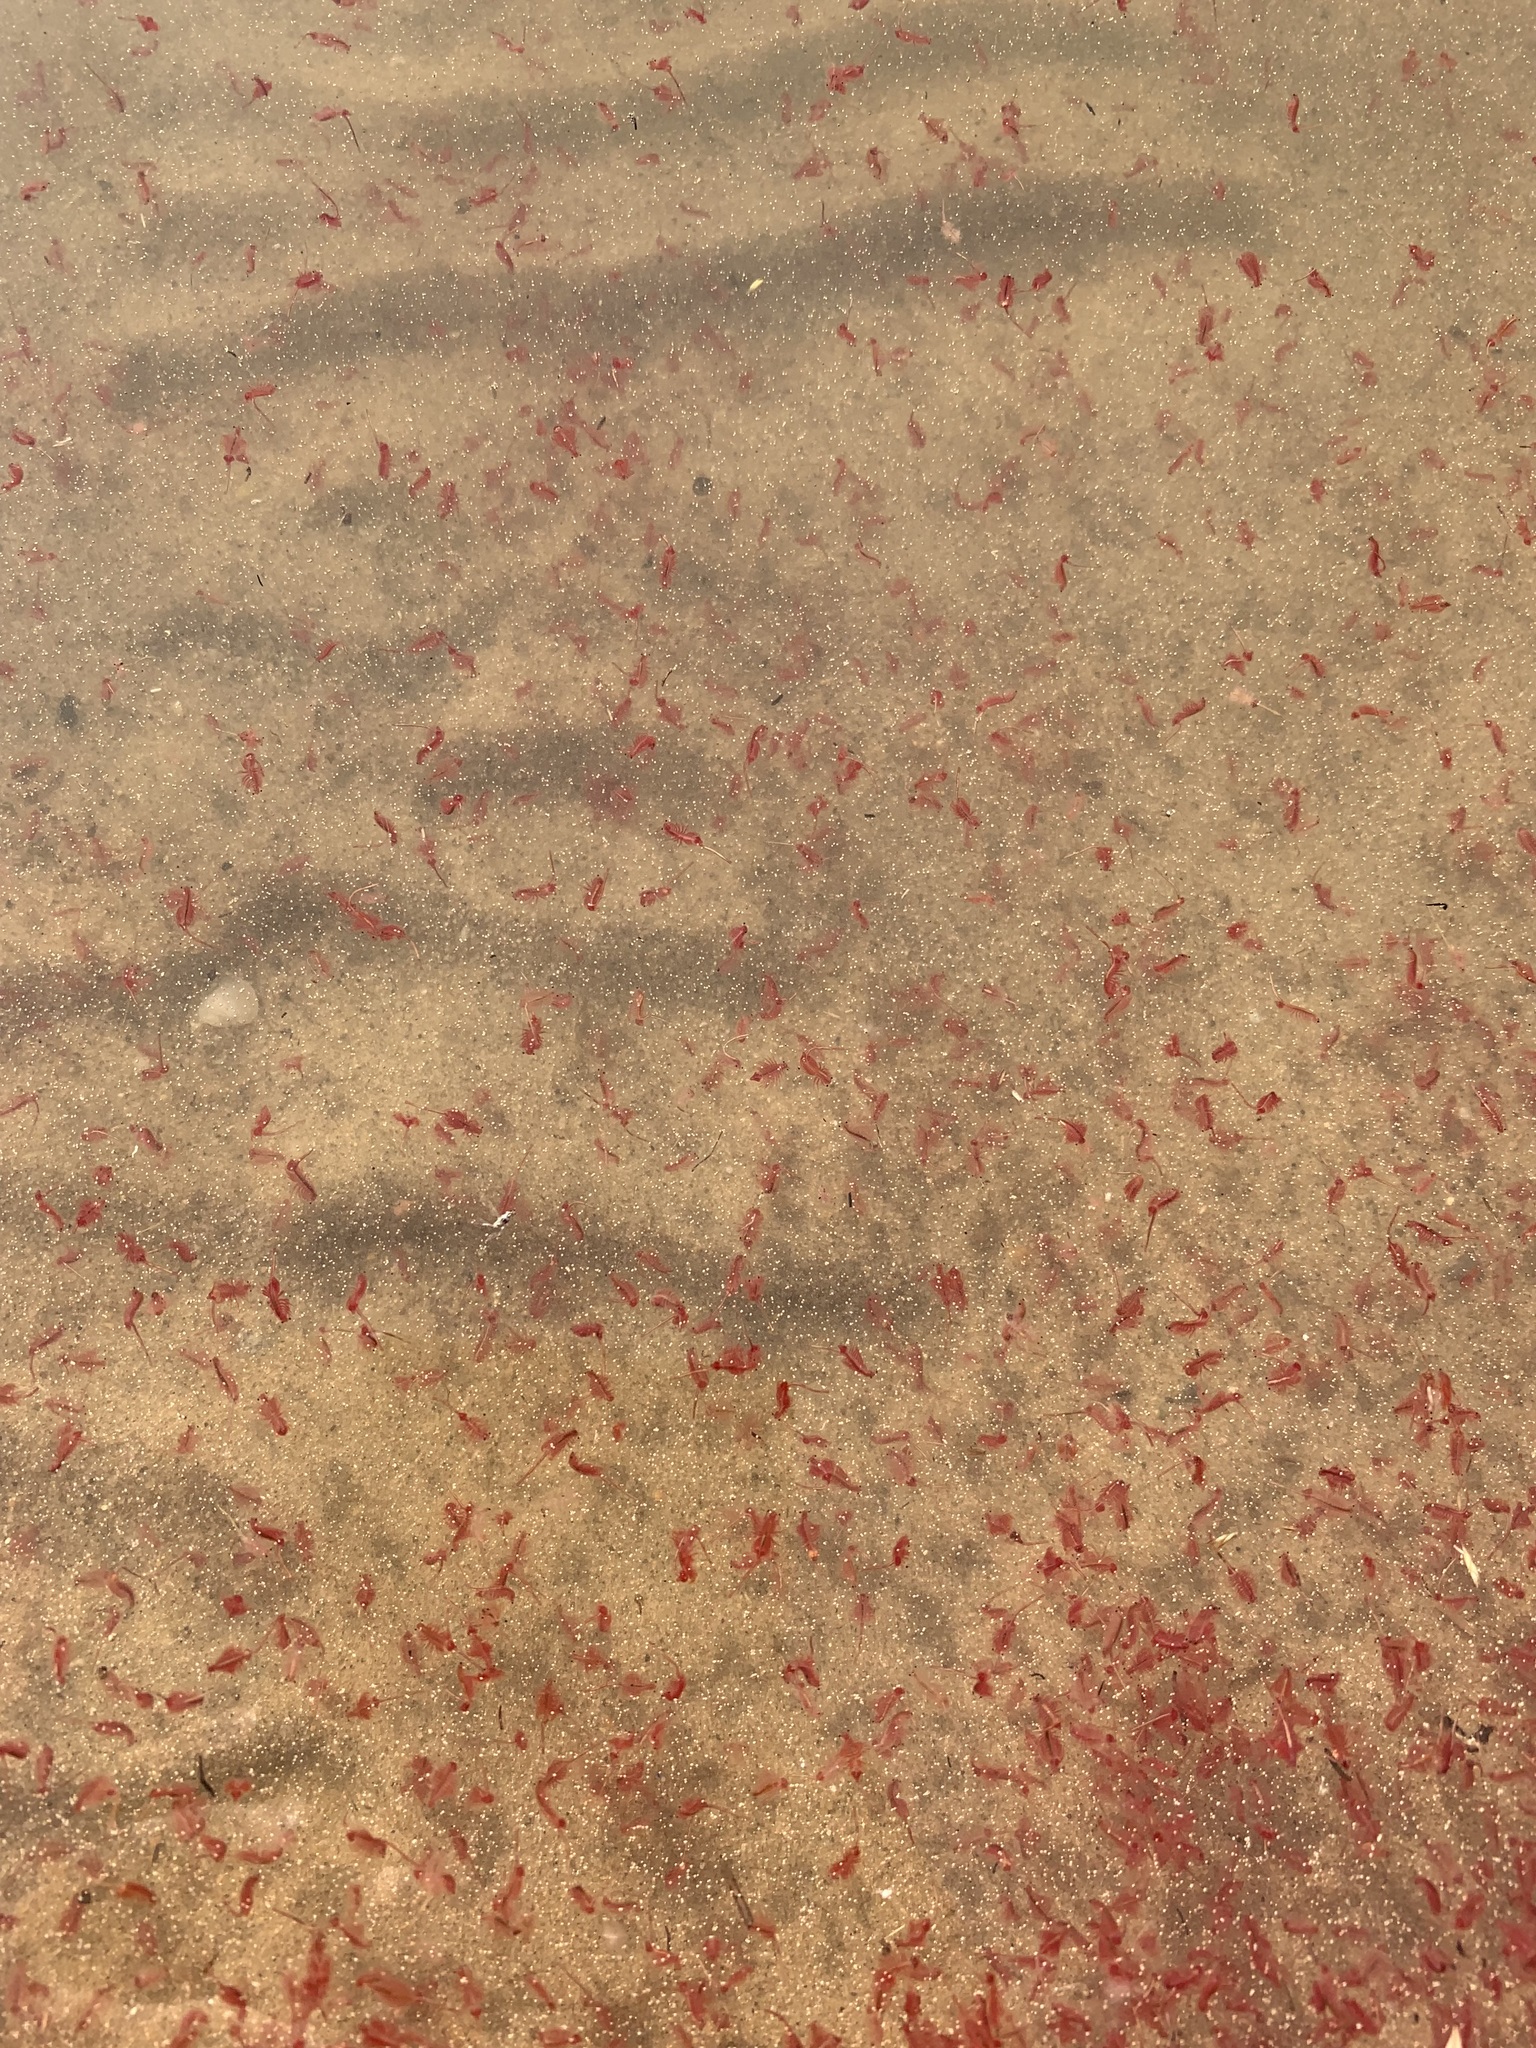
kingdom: Animalia
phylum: Arthropoda
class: Branchiopoda
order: Anostraca
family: Artemiidae
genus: Artemia
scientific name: Artemia salina
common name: Brine shrimp
